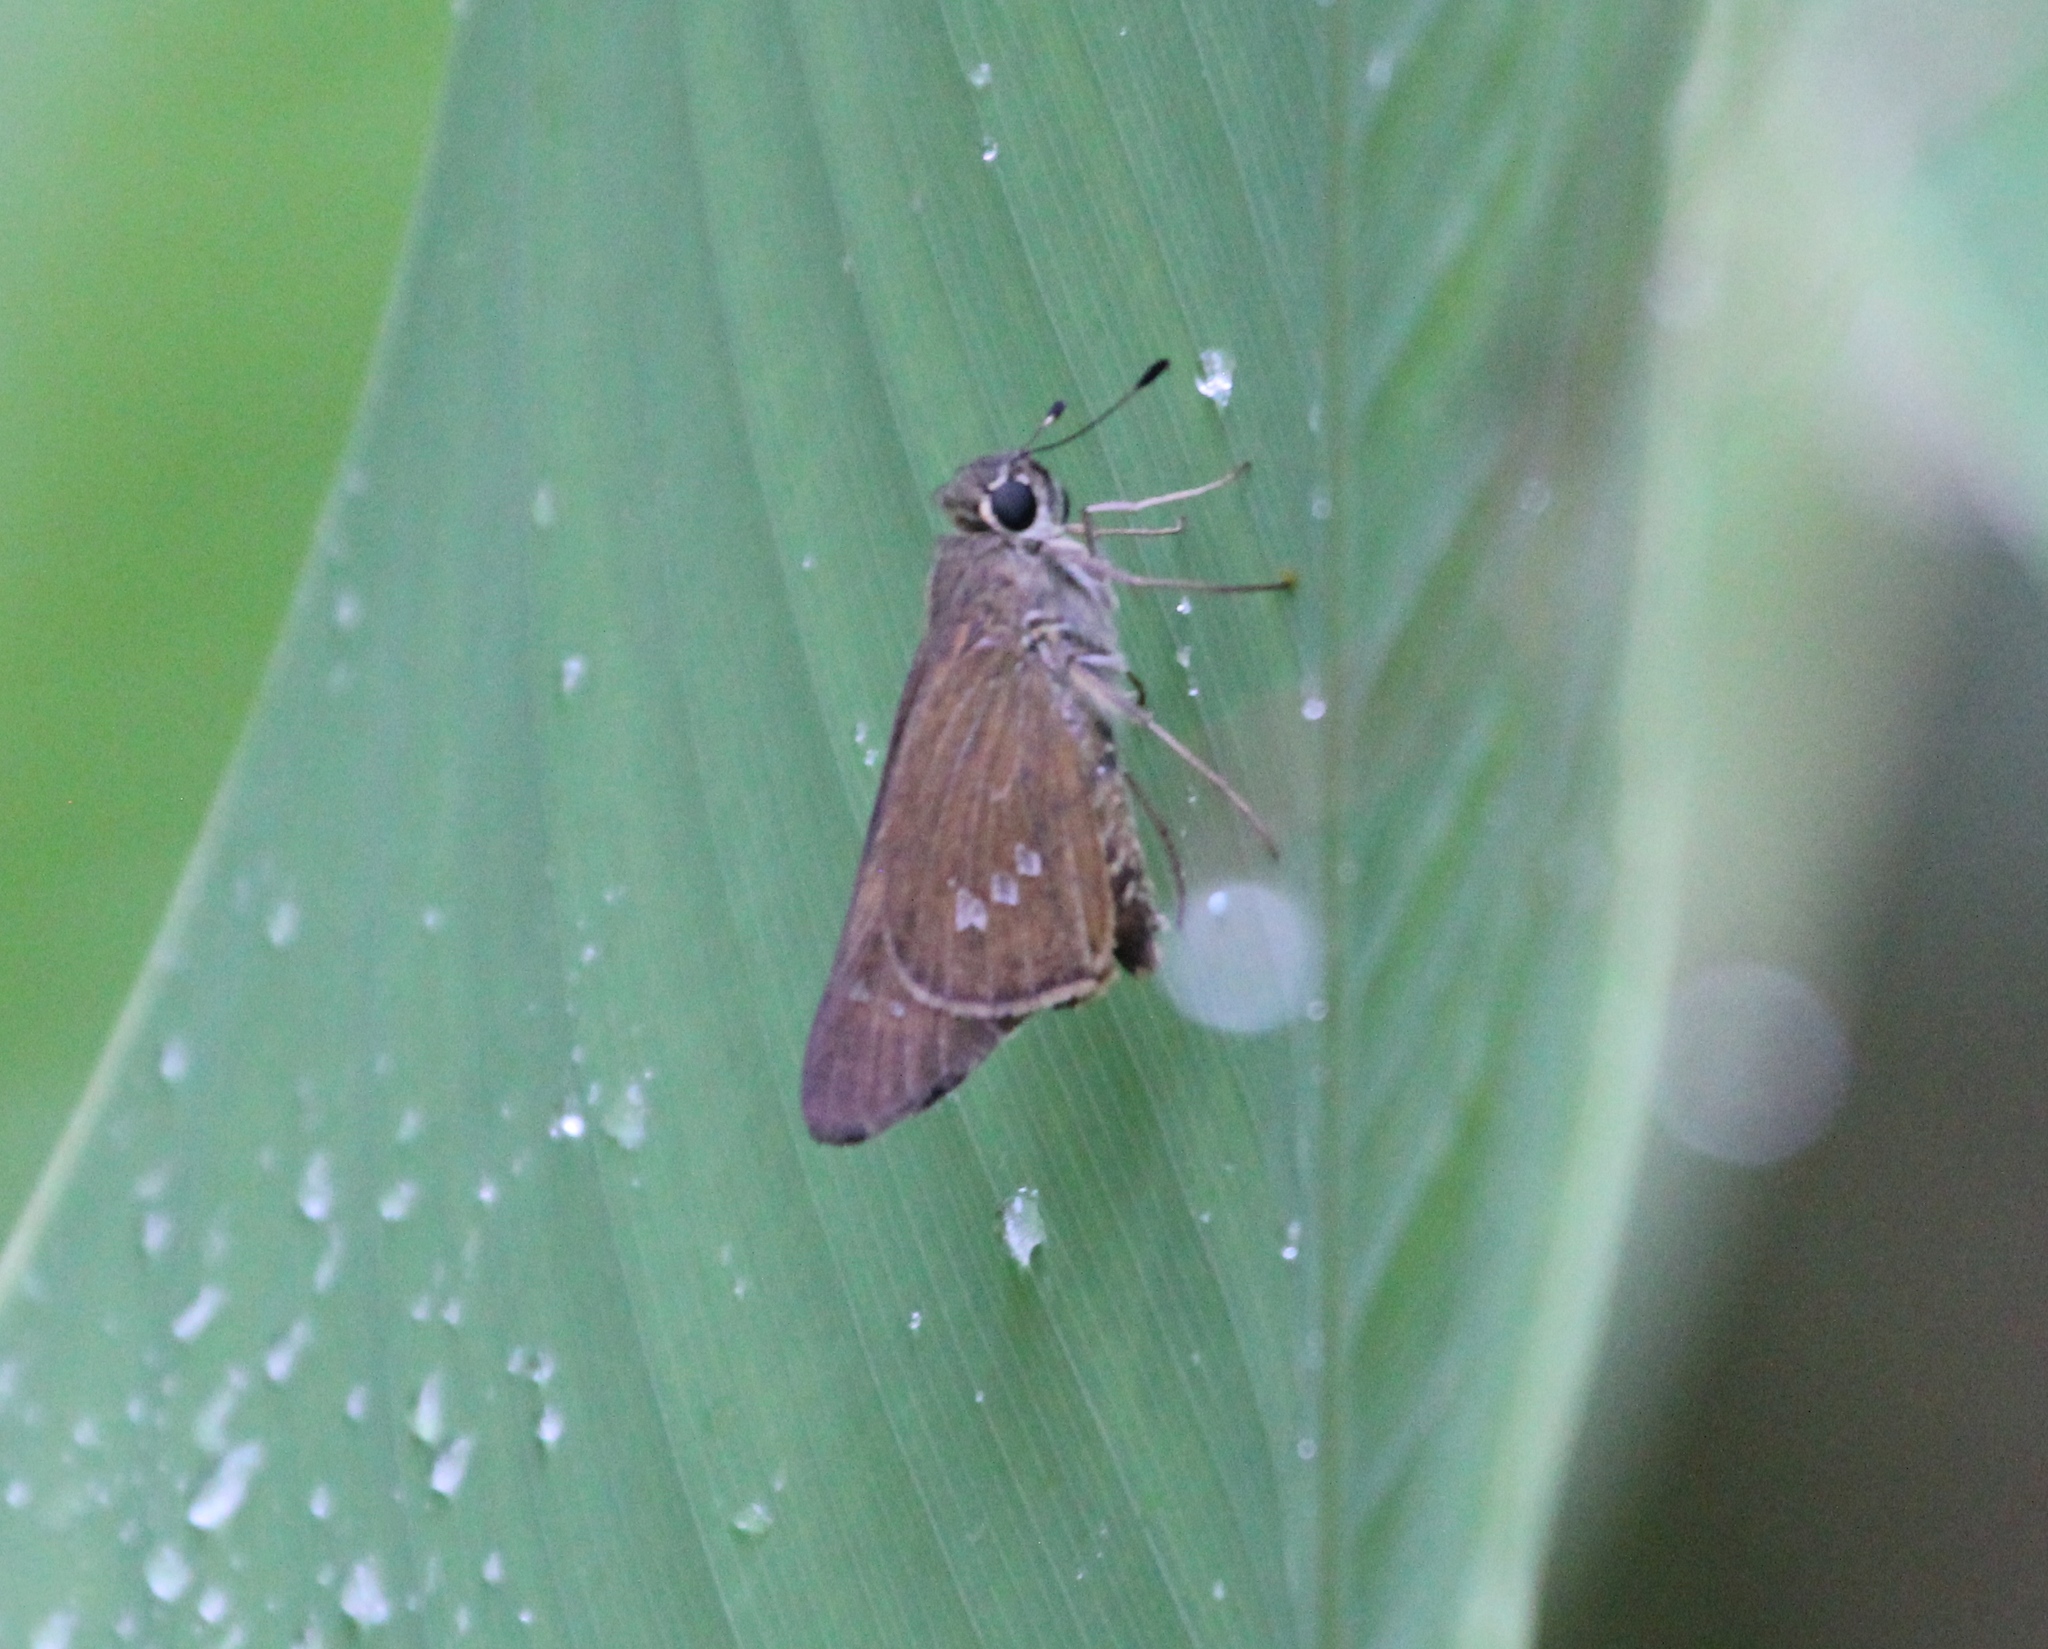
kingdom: Animalia
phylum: Arthropoda
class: Insecta
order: Lepidoptera
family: Hesperiidae
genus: Calpodes
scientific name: Calpodes ethlius
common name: Brazilian skipper
